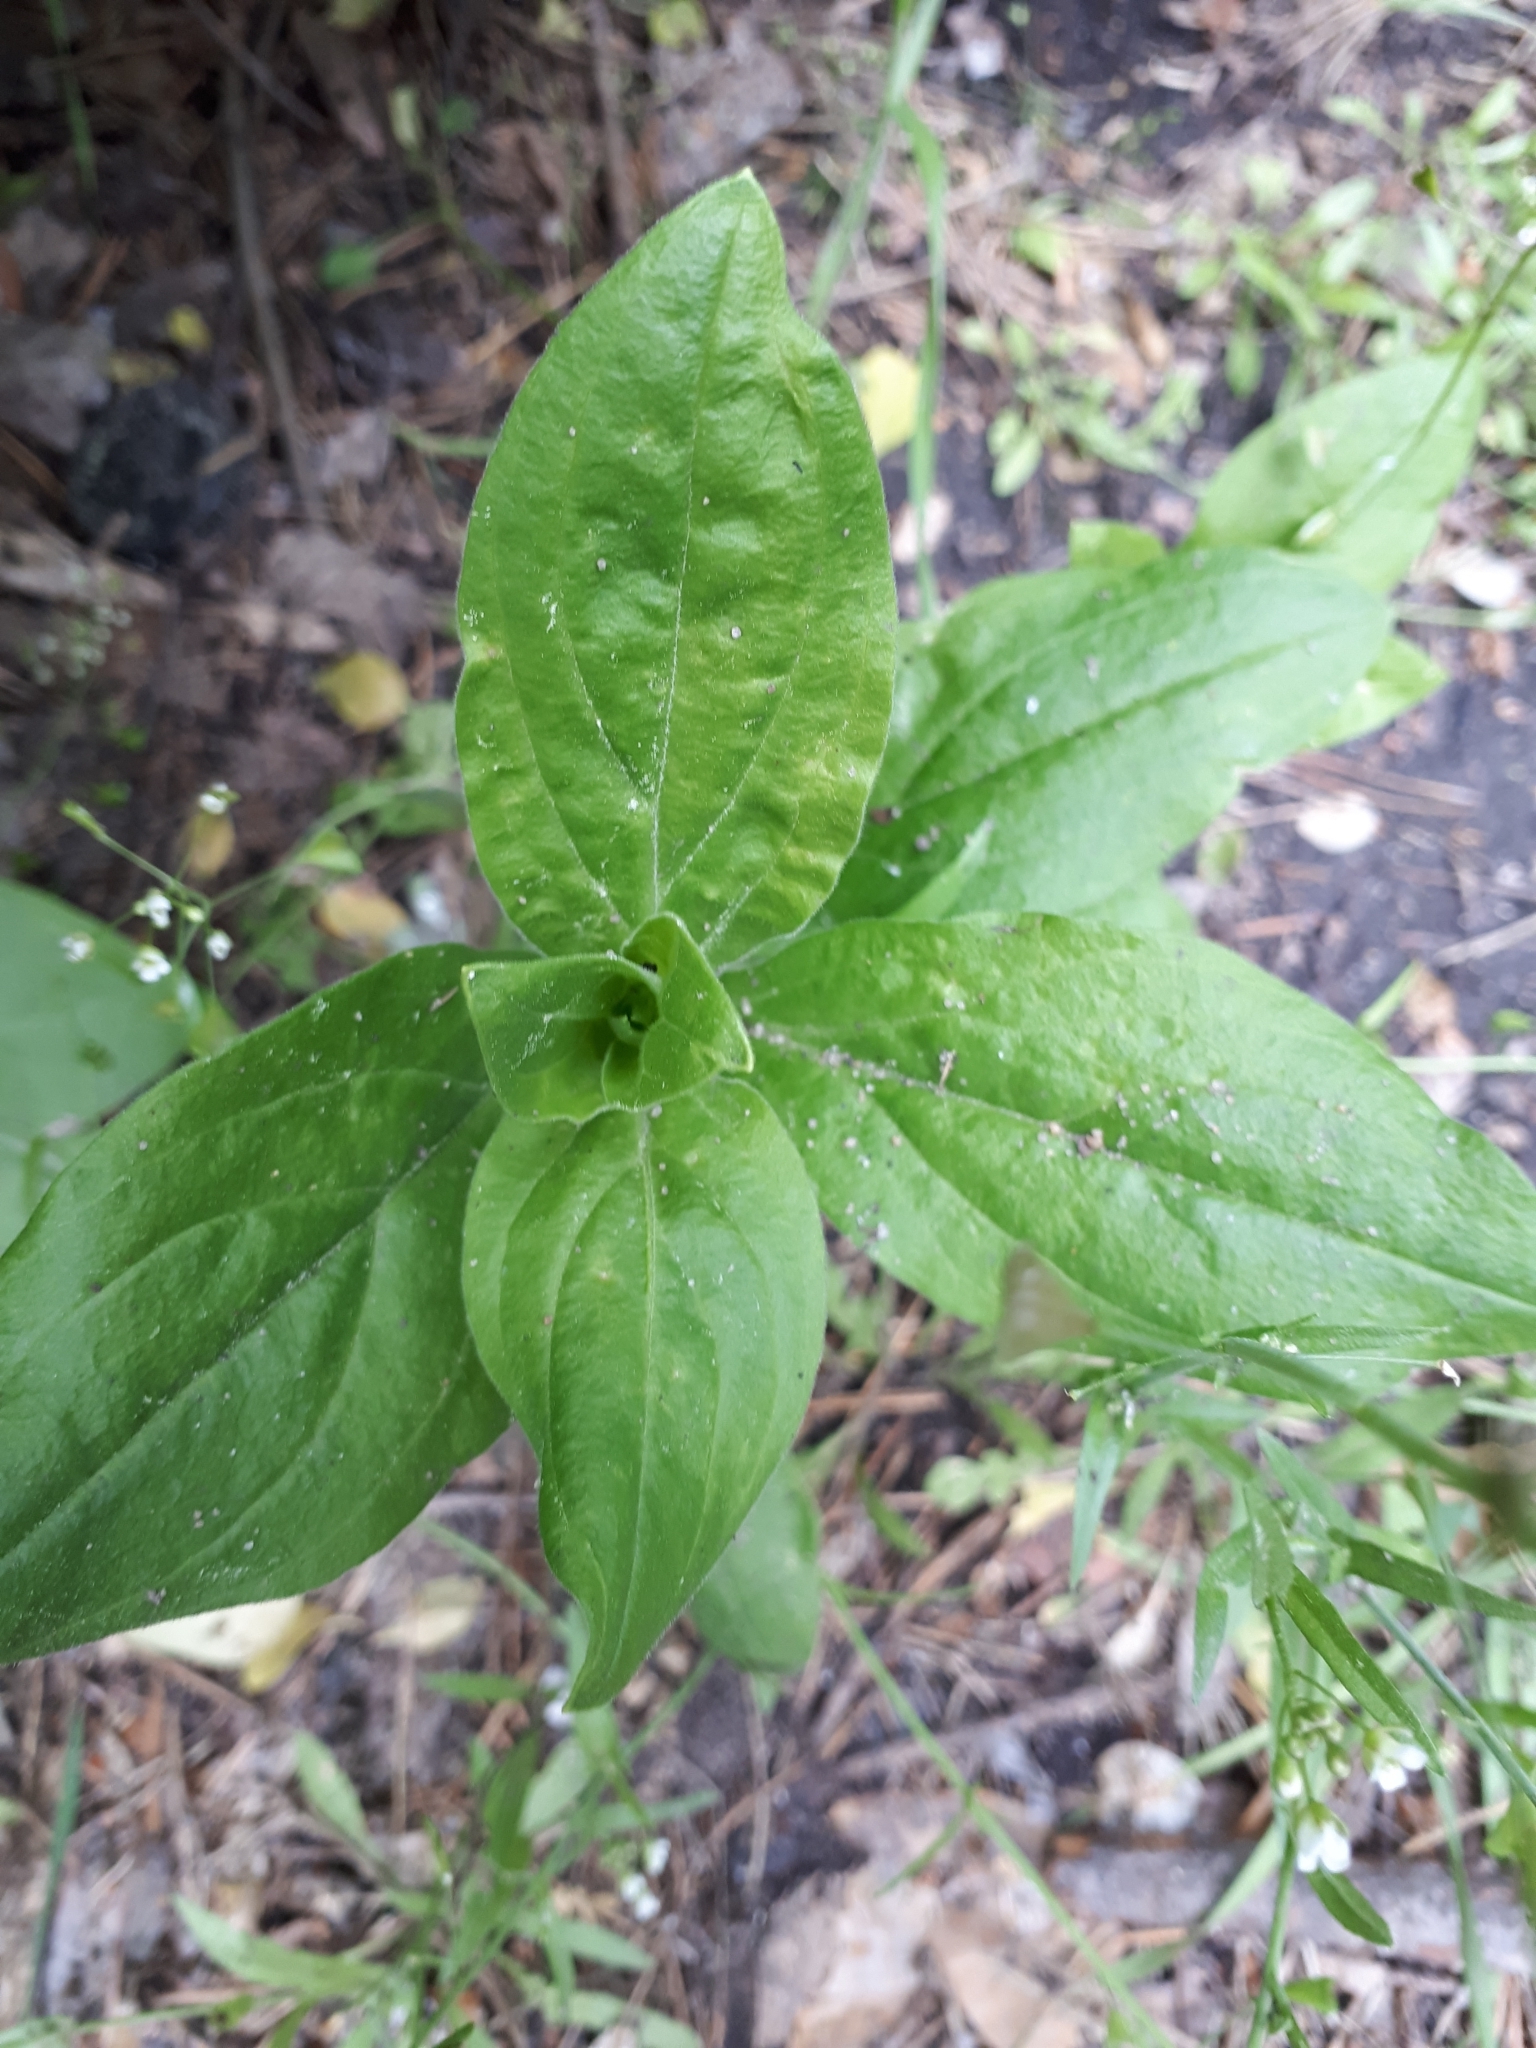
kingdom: Plantae
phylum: Tracheophyta
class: Magnoliopsida
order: Caryophyllales
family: Caryophyllaceae
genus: Silene
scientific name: Silene latifolia
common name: White campion
